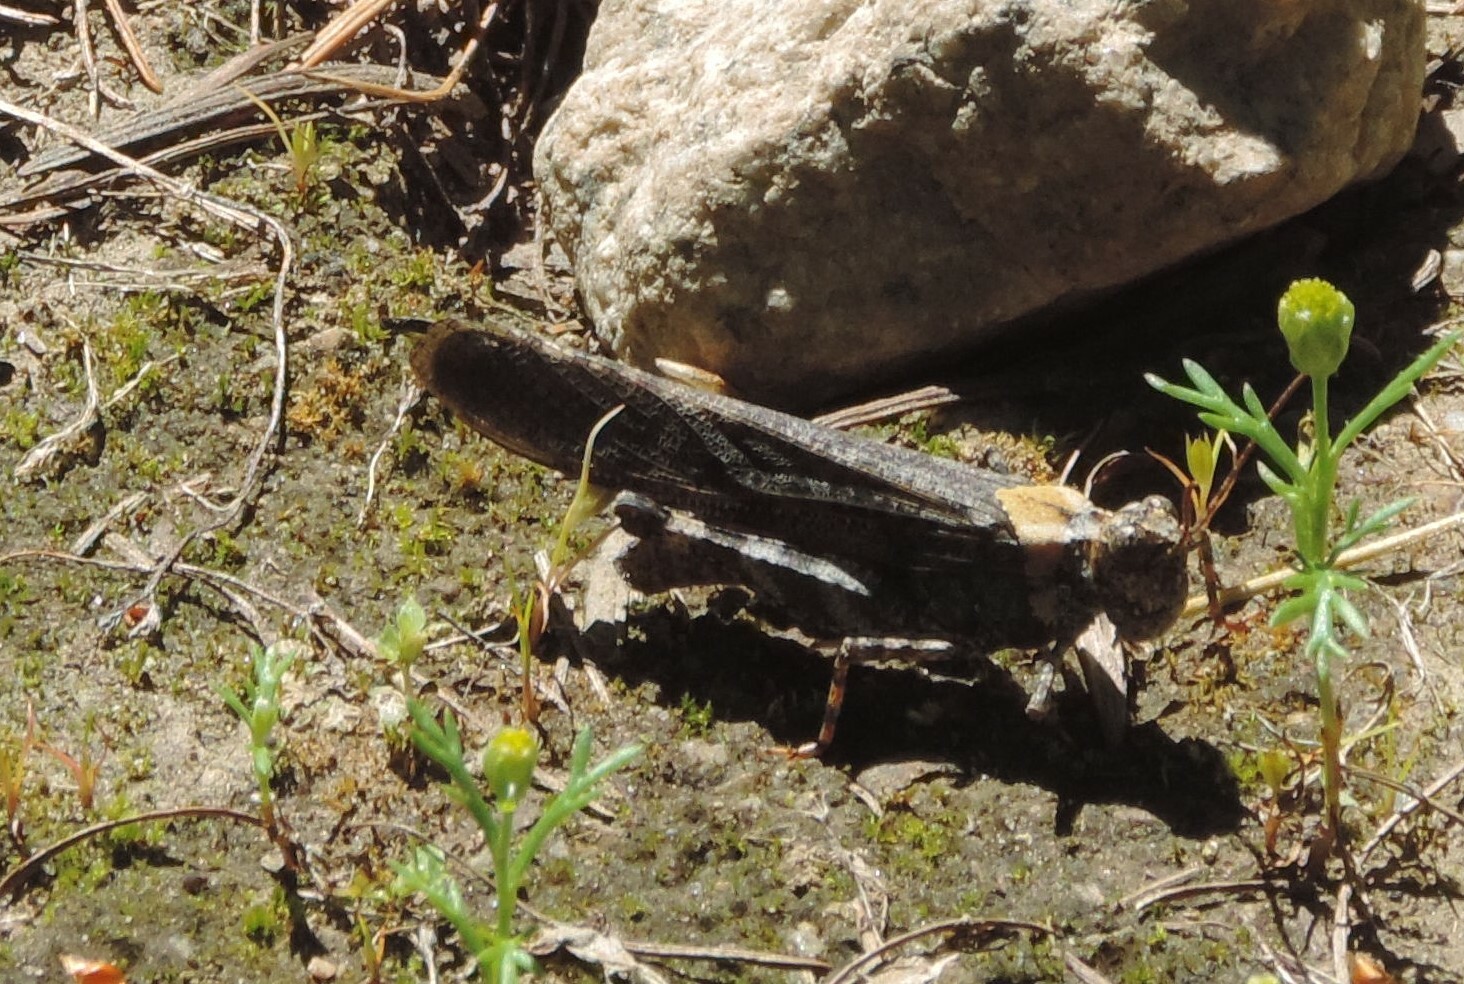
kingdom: Animalia
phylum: Arthropoda
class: Insecta
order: Orthoptera
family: Acrididae
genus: Trimerotropis
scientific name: Trimerotropis verruculata
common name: Crackling forest grasshopper
